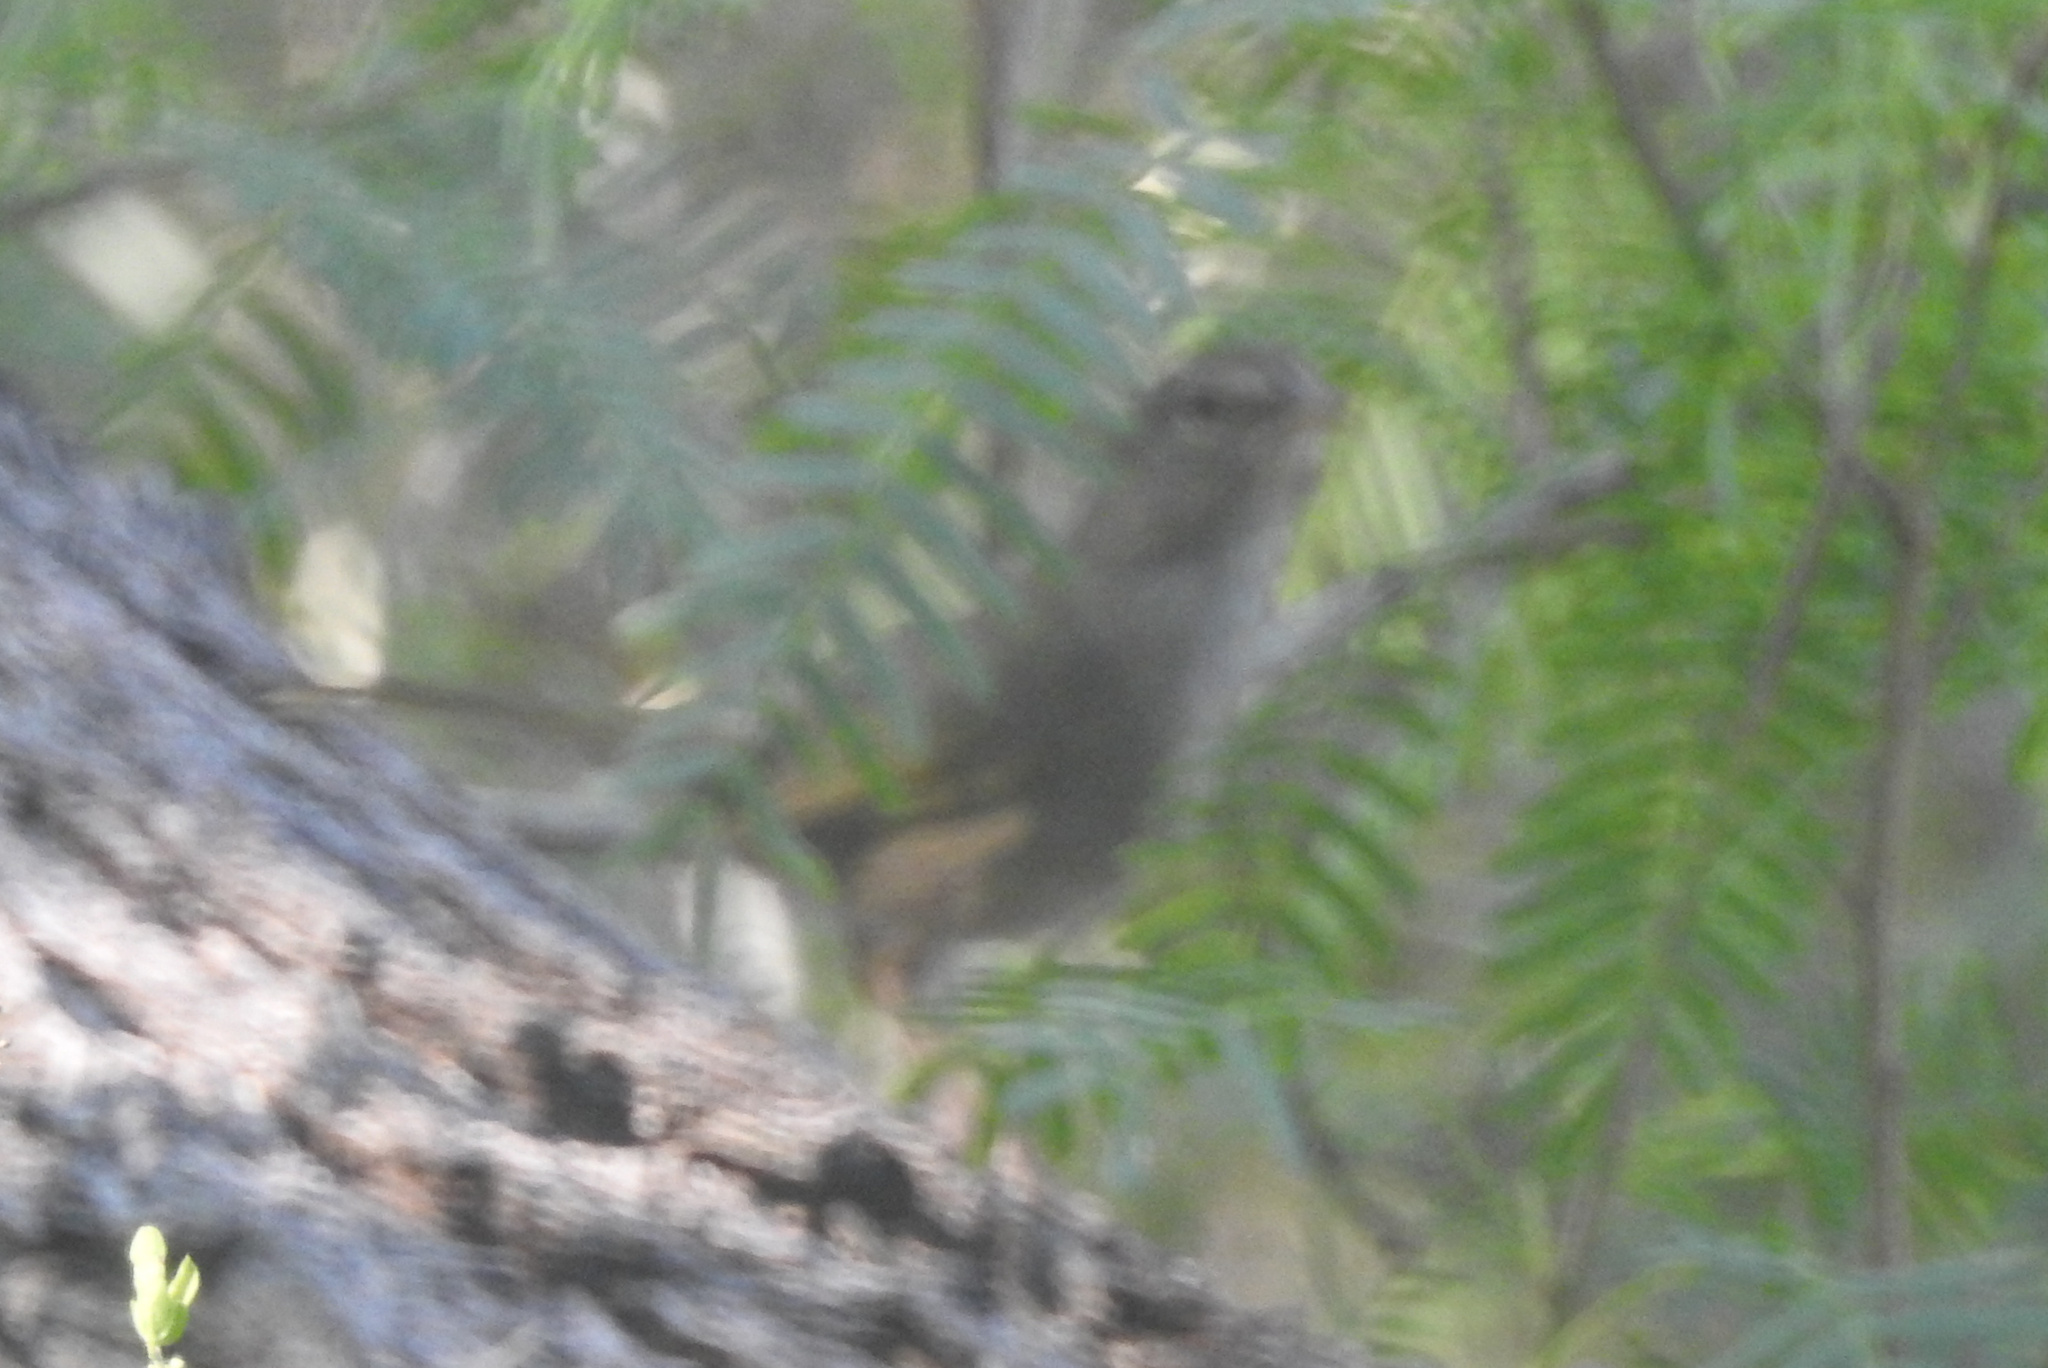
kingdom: Animalia
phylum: Chordata
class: Aves
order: Passeriformes
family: Passerellidae
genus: Arremonops
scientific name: Arremonops rufivirgatus
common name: Olive sparrow
